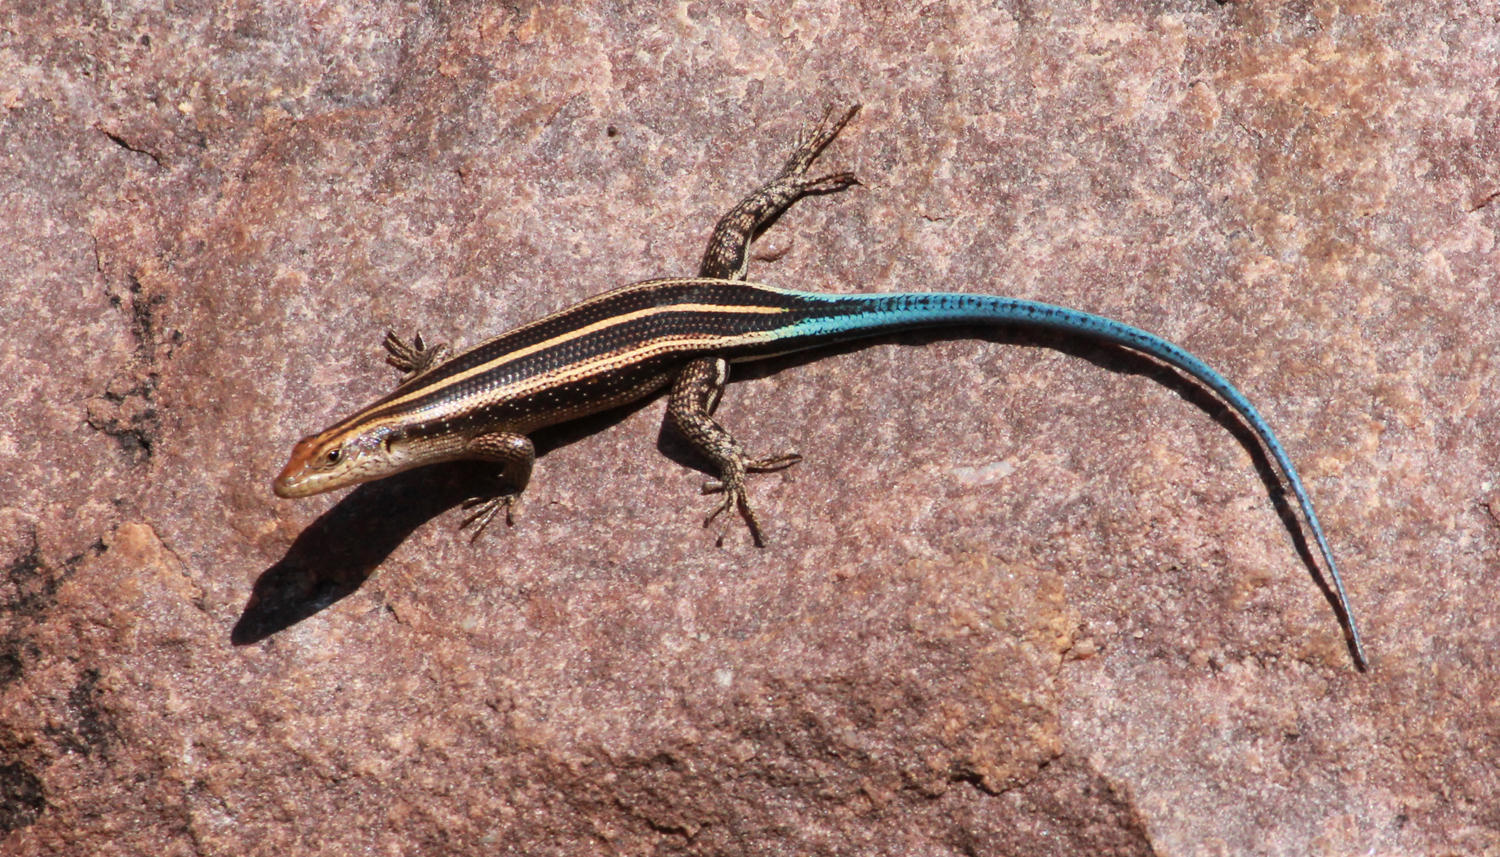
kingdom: Animalia
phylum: Chordata
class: Squamata
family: Scincidae
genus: Trachylepis
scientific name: Trachylepis margaritifera
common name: Rainbow skink
